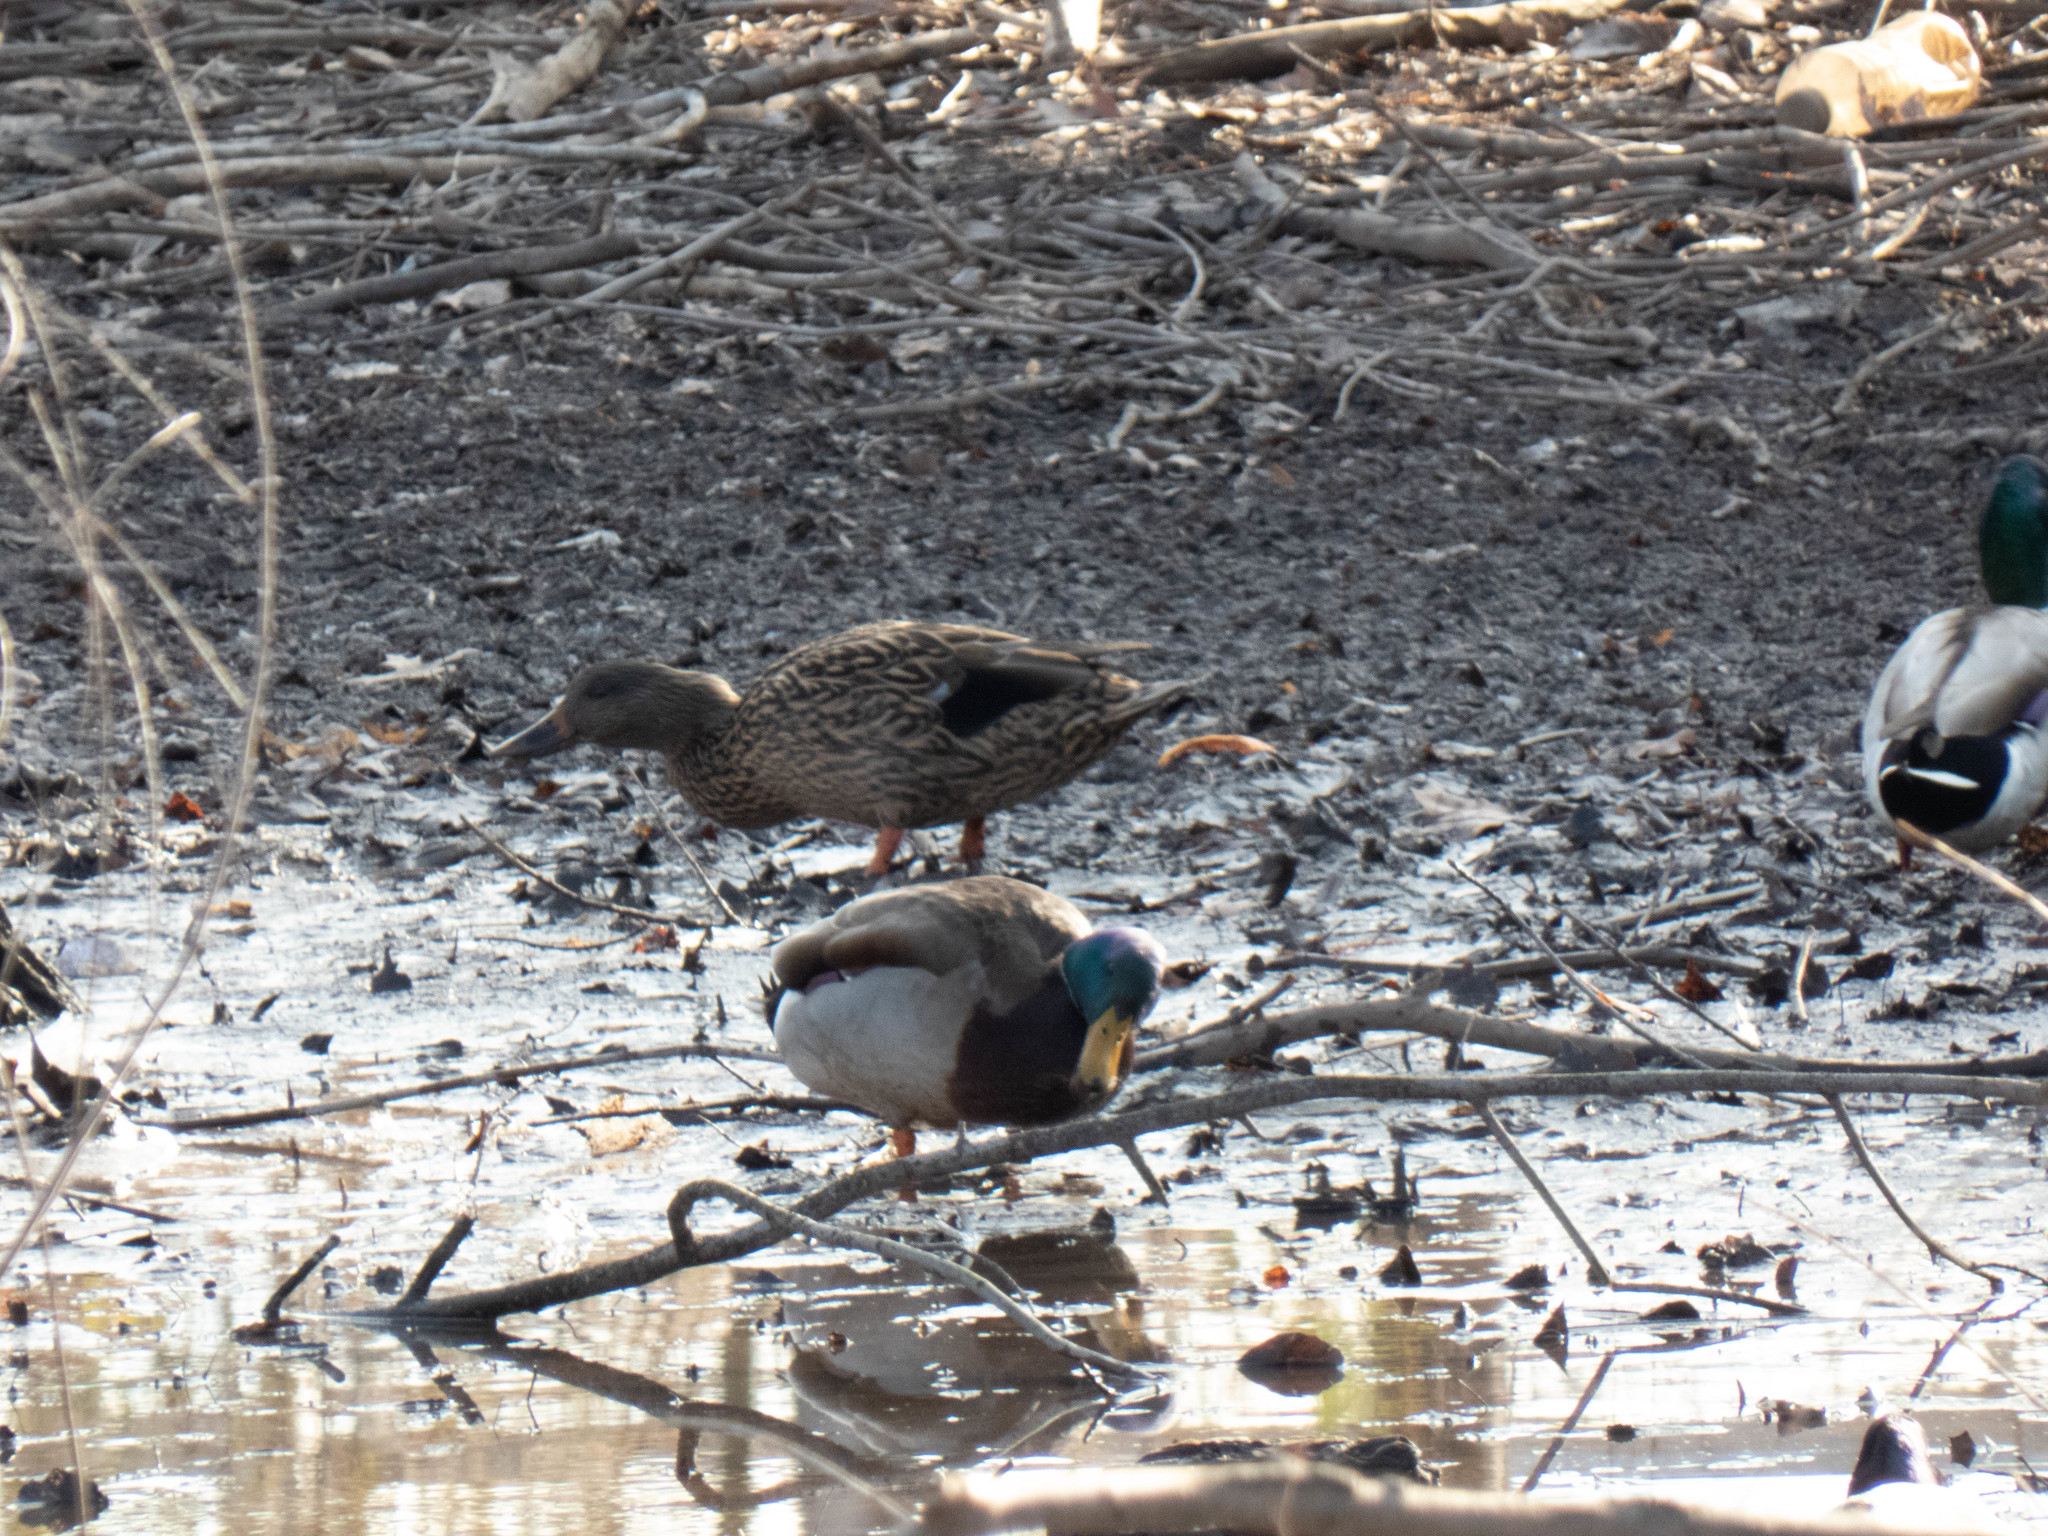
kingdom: Animalia
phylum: Chordata
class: Aves
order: Anseriformes
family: Anatidae
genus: Anas
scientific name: Anas platyrhynchos
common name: Mallard
